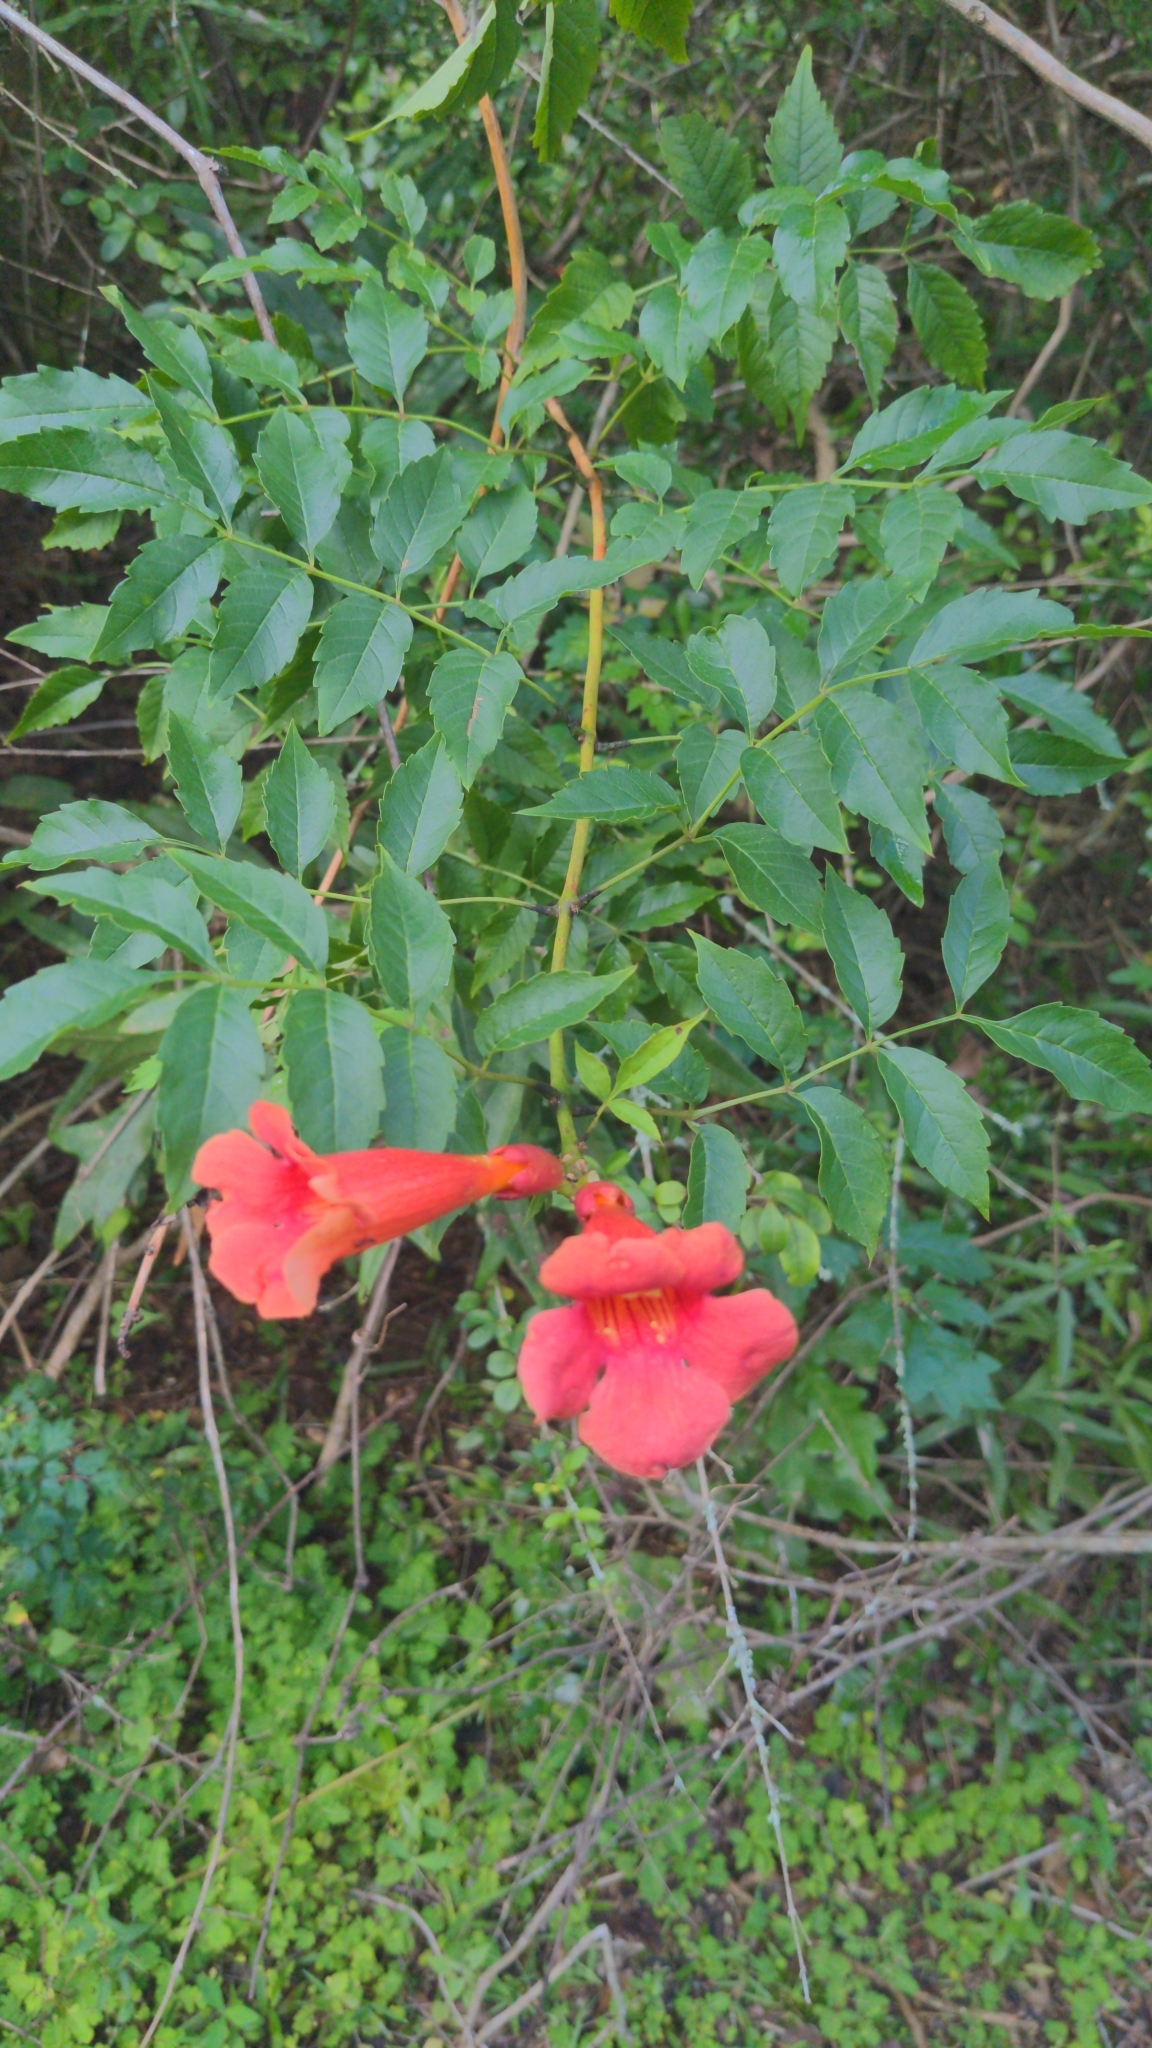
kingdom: Plantae
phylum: Tracheophyta
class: Magnoliopsida
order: Lamiales
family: Bignoniaceae
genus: Campsis
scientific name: Campsis radicans
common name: Trumpet-creeper
